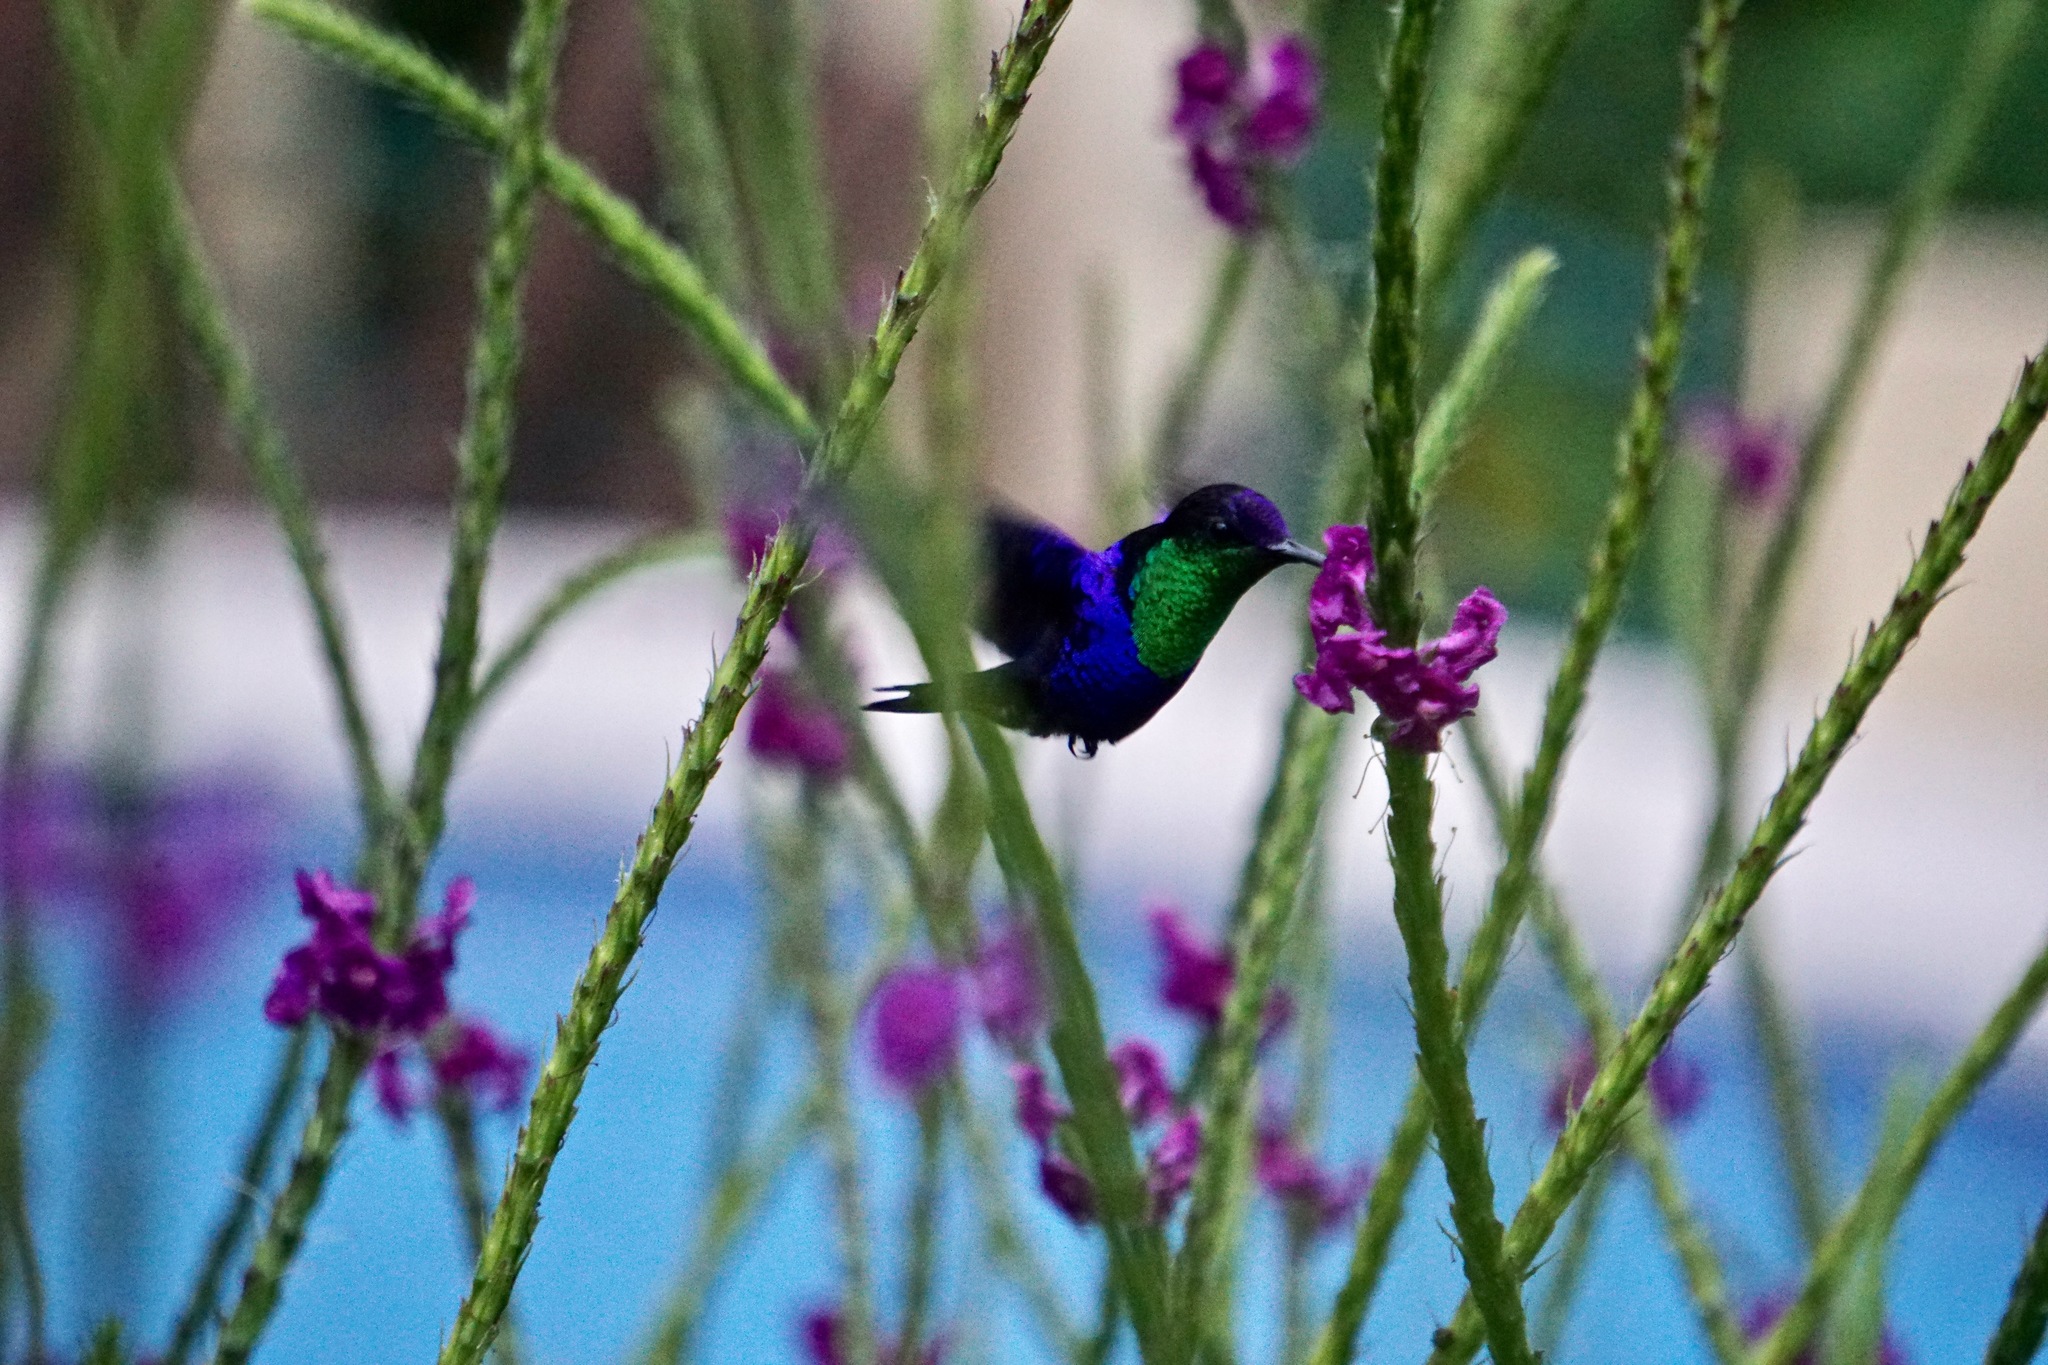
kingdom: Animalia
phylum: Chordata
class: Aves
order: Apodiformes
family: Trochilidae
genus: Thalurania
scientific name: Thalurania colombica
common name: Crowned woodnymph
